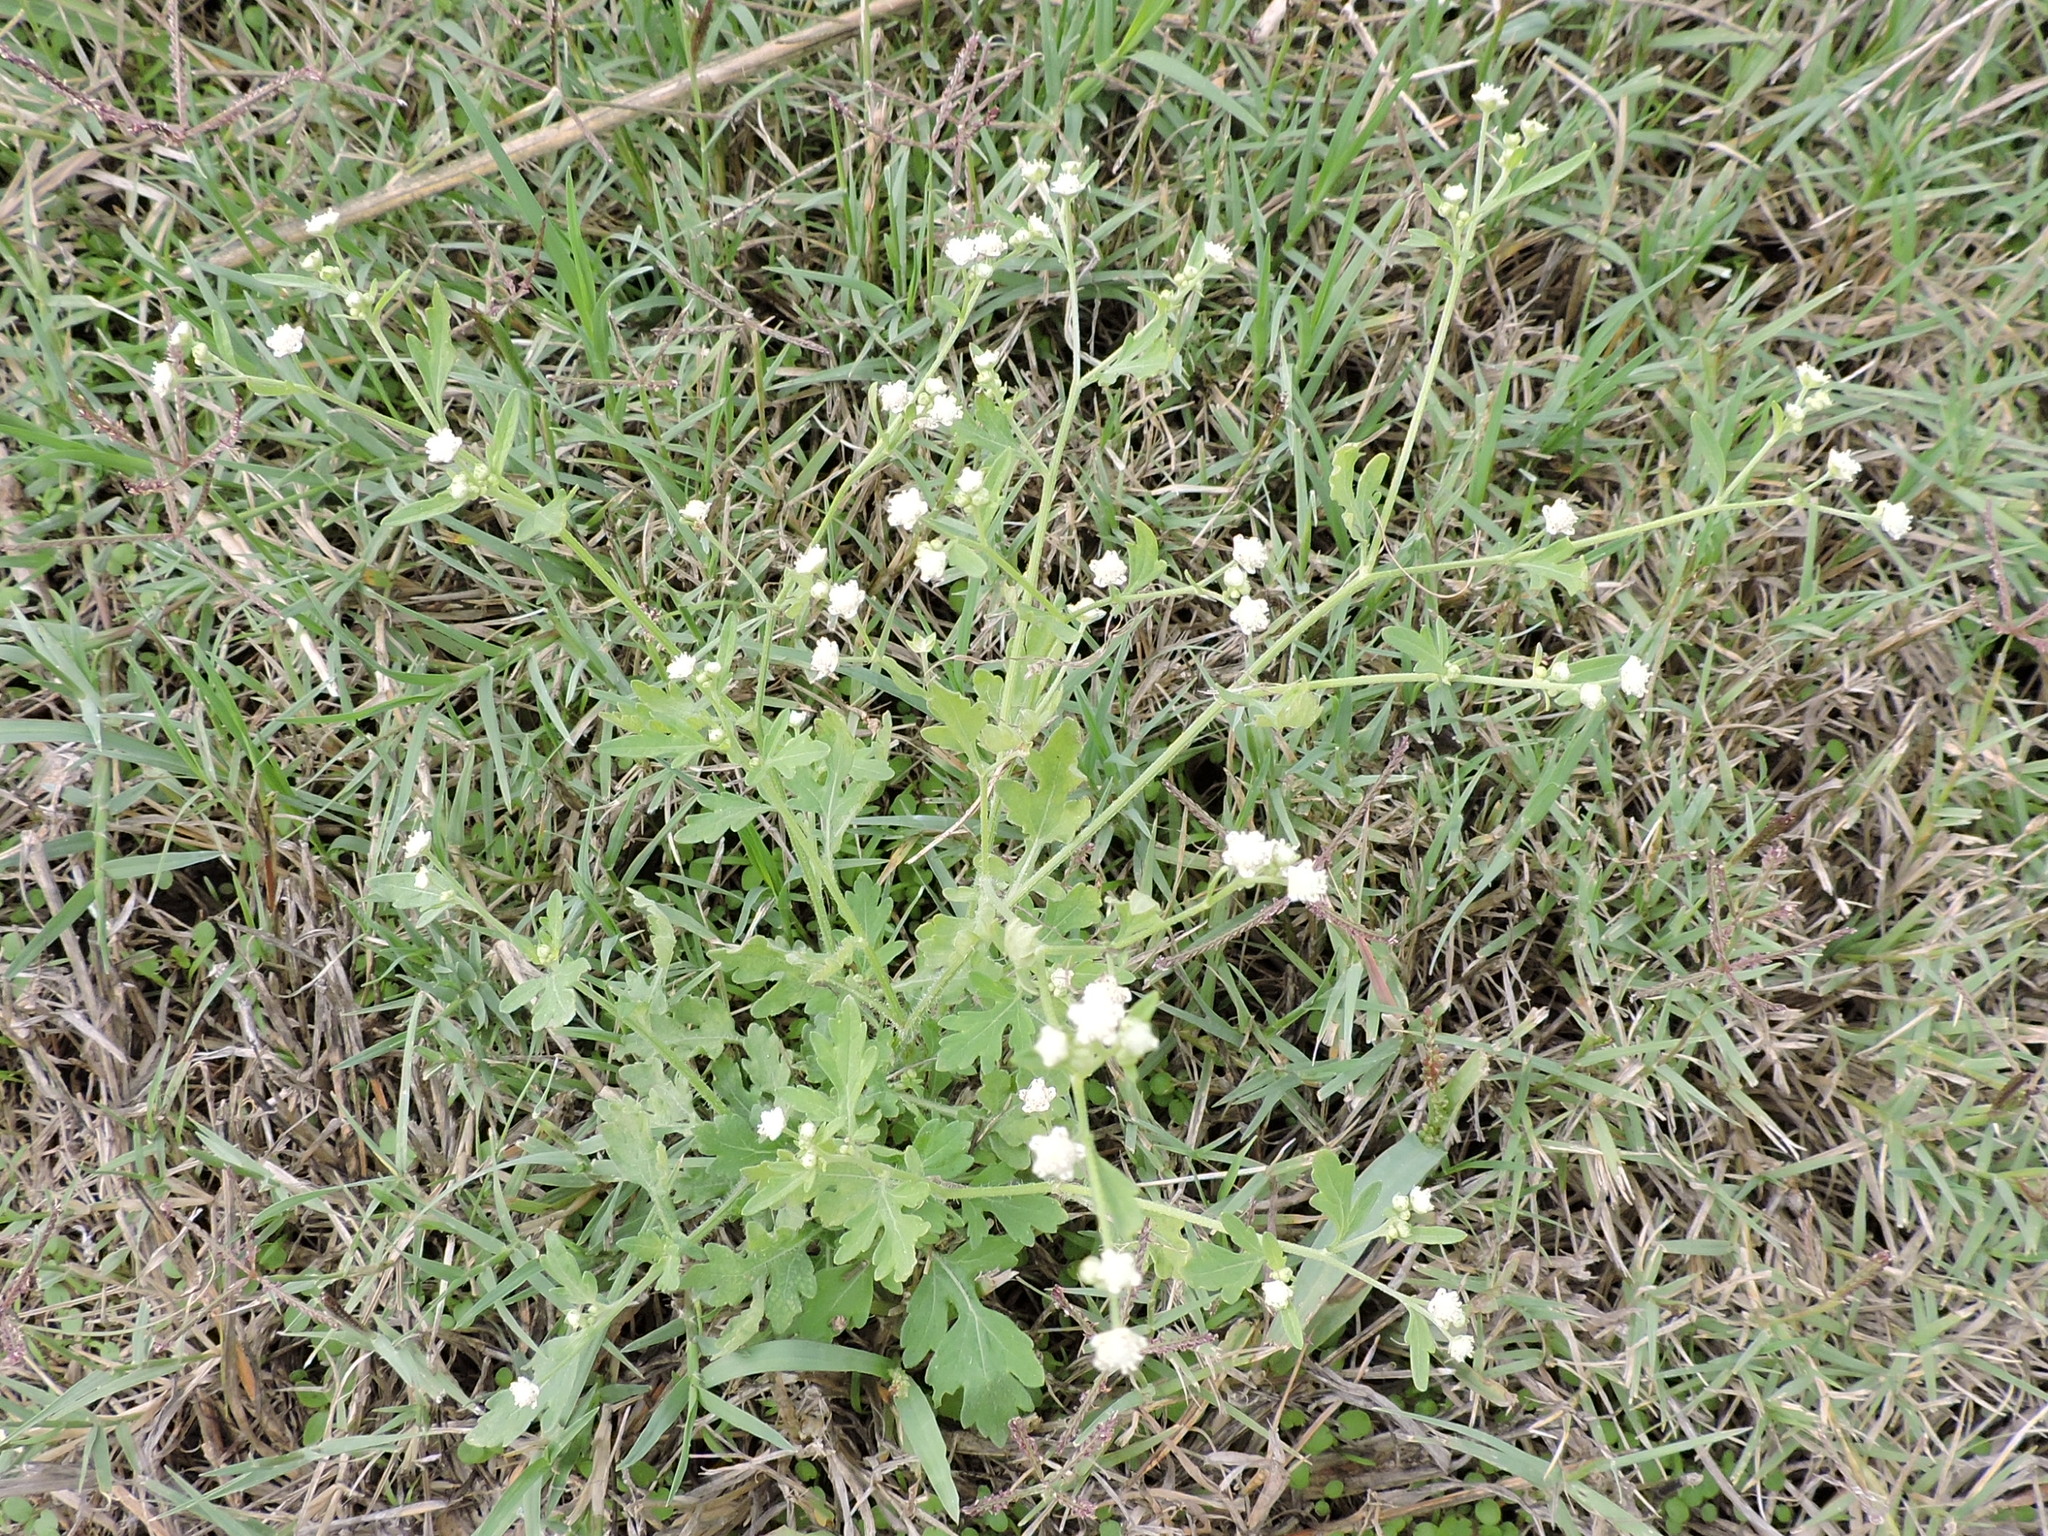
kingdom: Plantae
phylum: Tracheophyta
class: Magnoliopsida
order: Asterales
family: Asteraceae
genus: Parthenium
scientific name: Parthenium hysterophorus
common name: Santa maria feverfew
